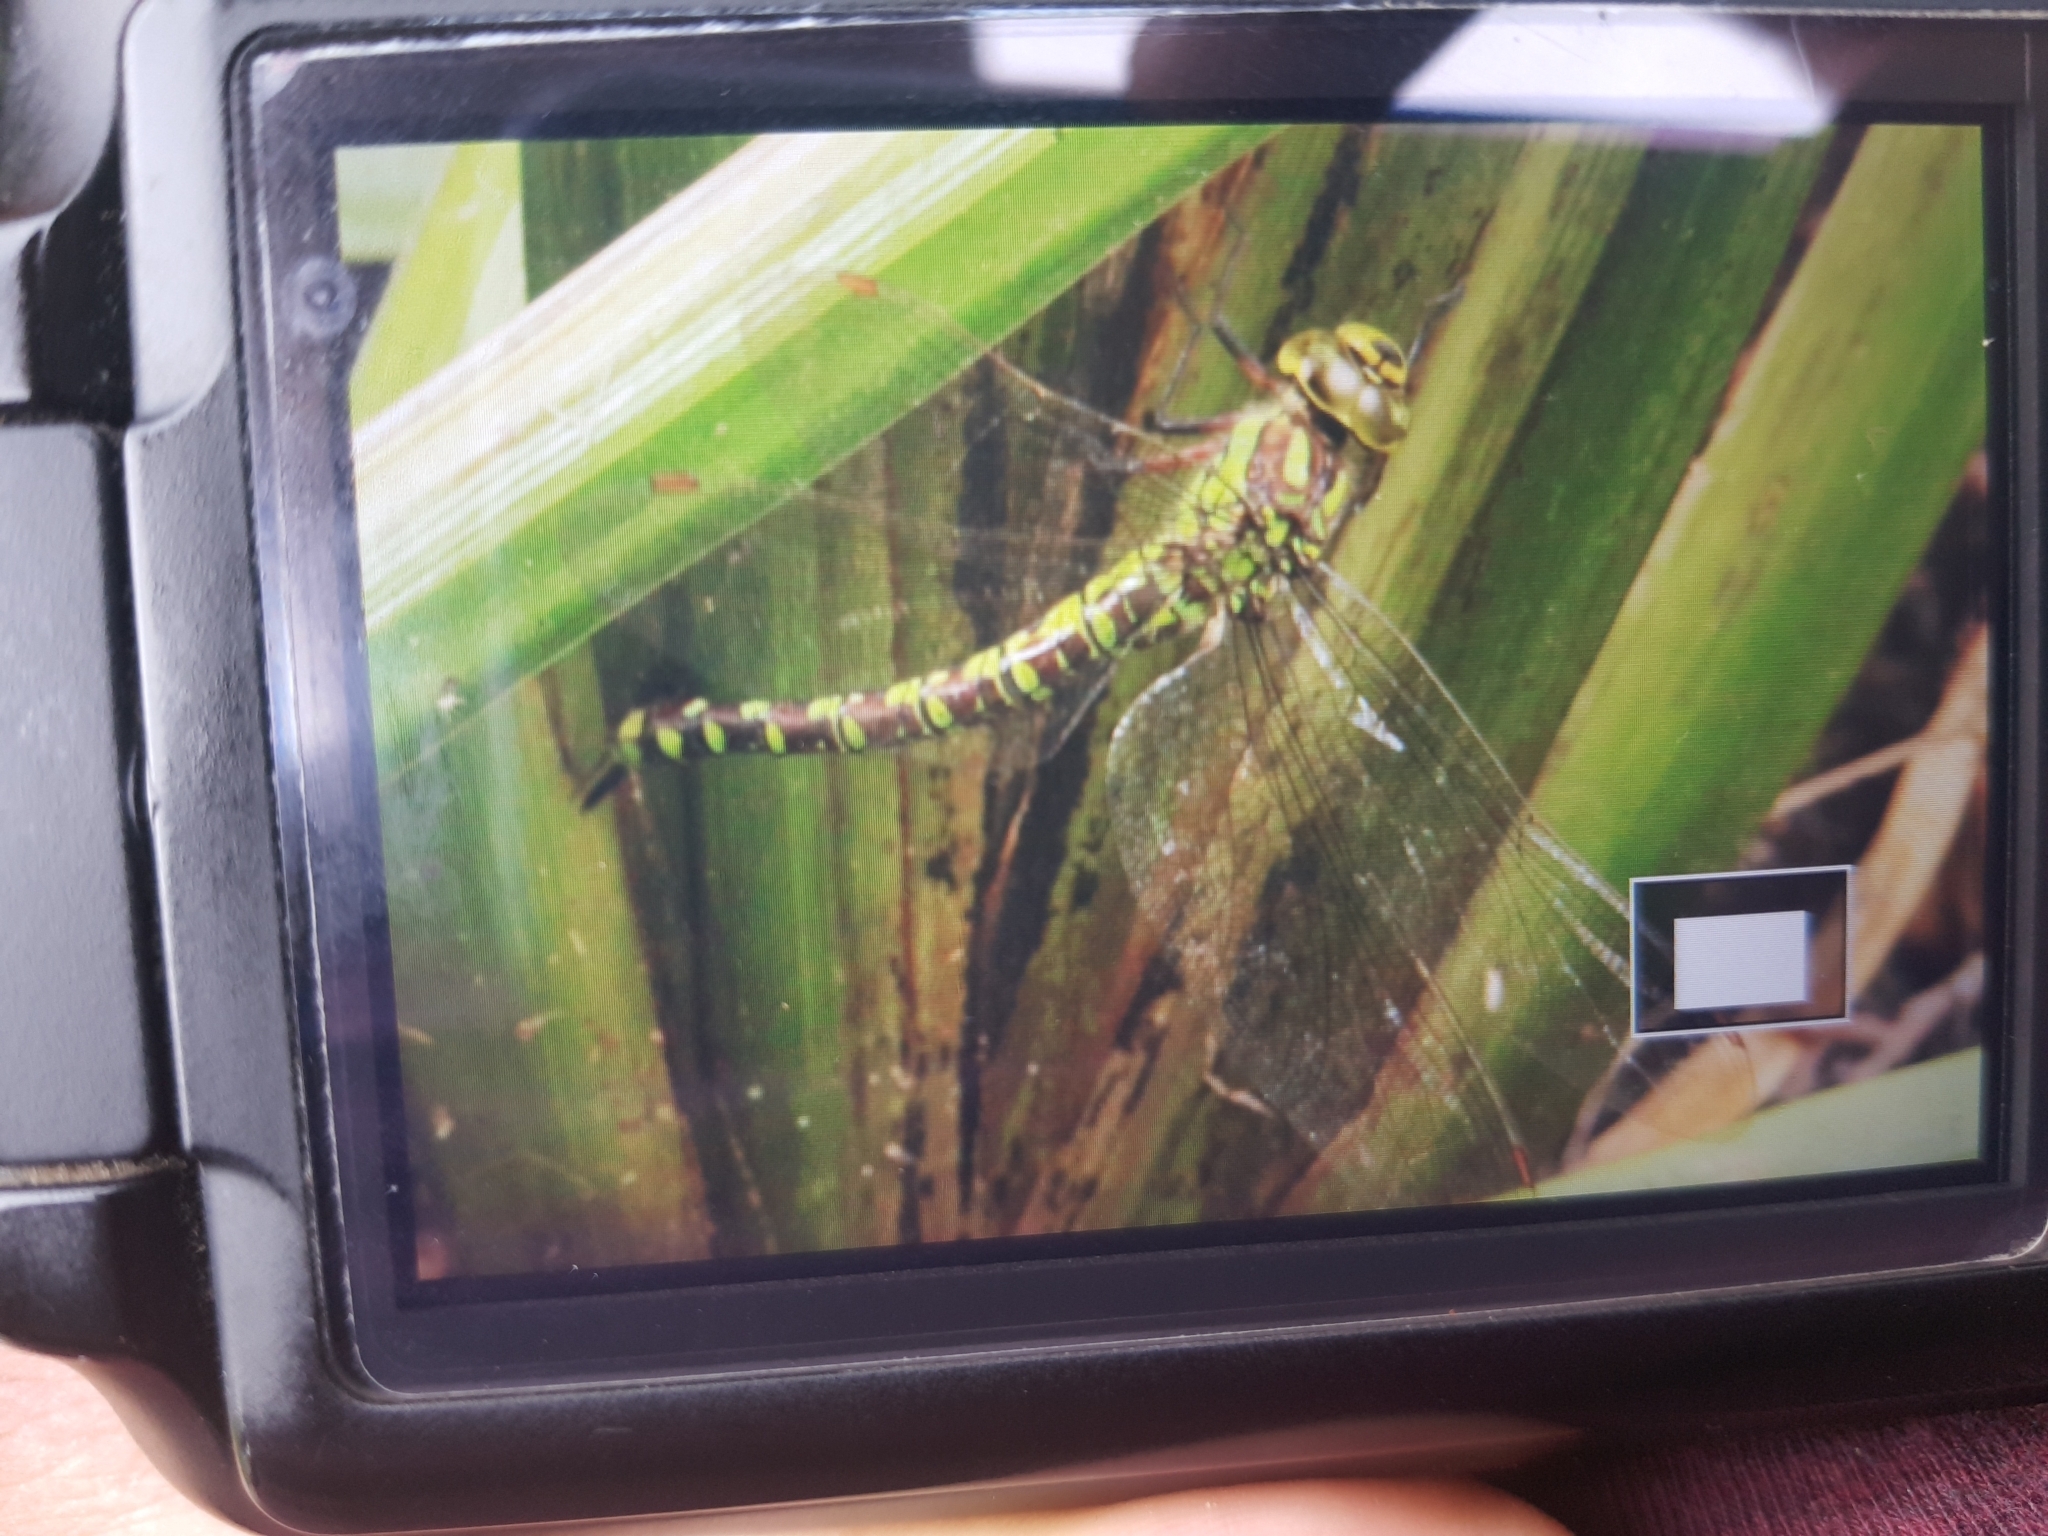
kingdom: Animalia
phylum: Arthropoda
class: Insecta
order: Odonata
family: Aeshnidae
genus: Aeshna
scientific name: Aeshna cyanea
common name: Southern hawker
